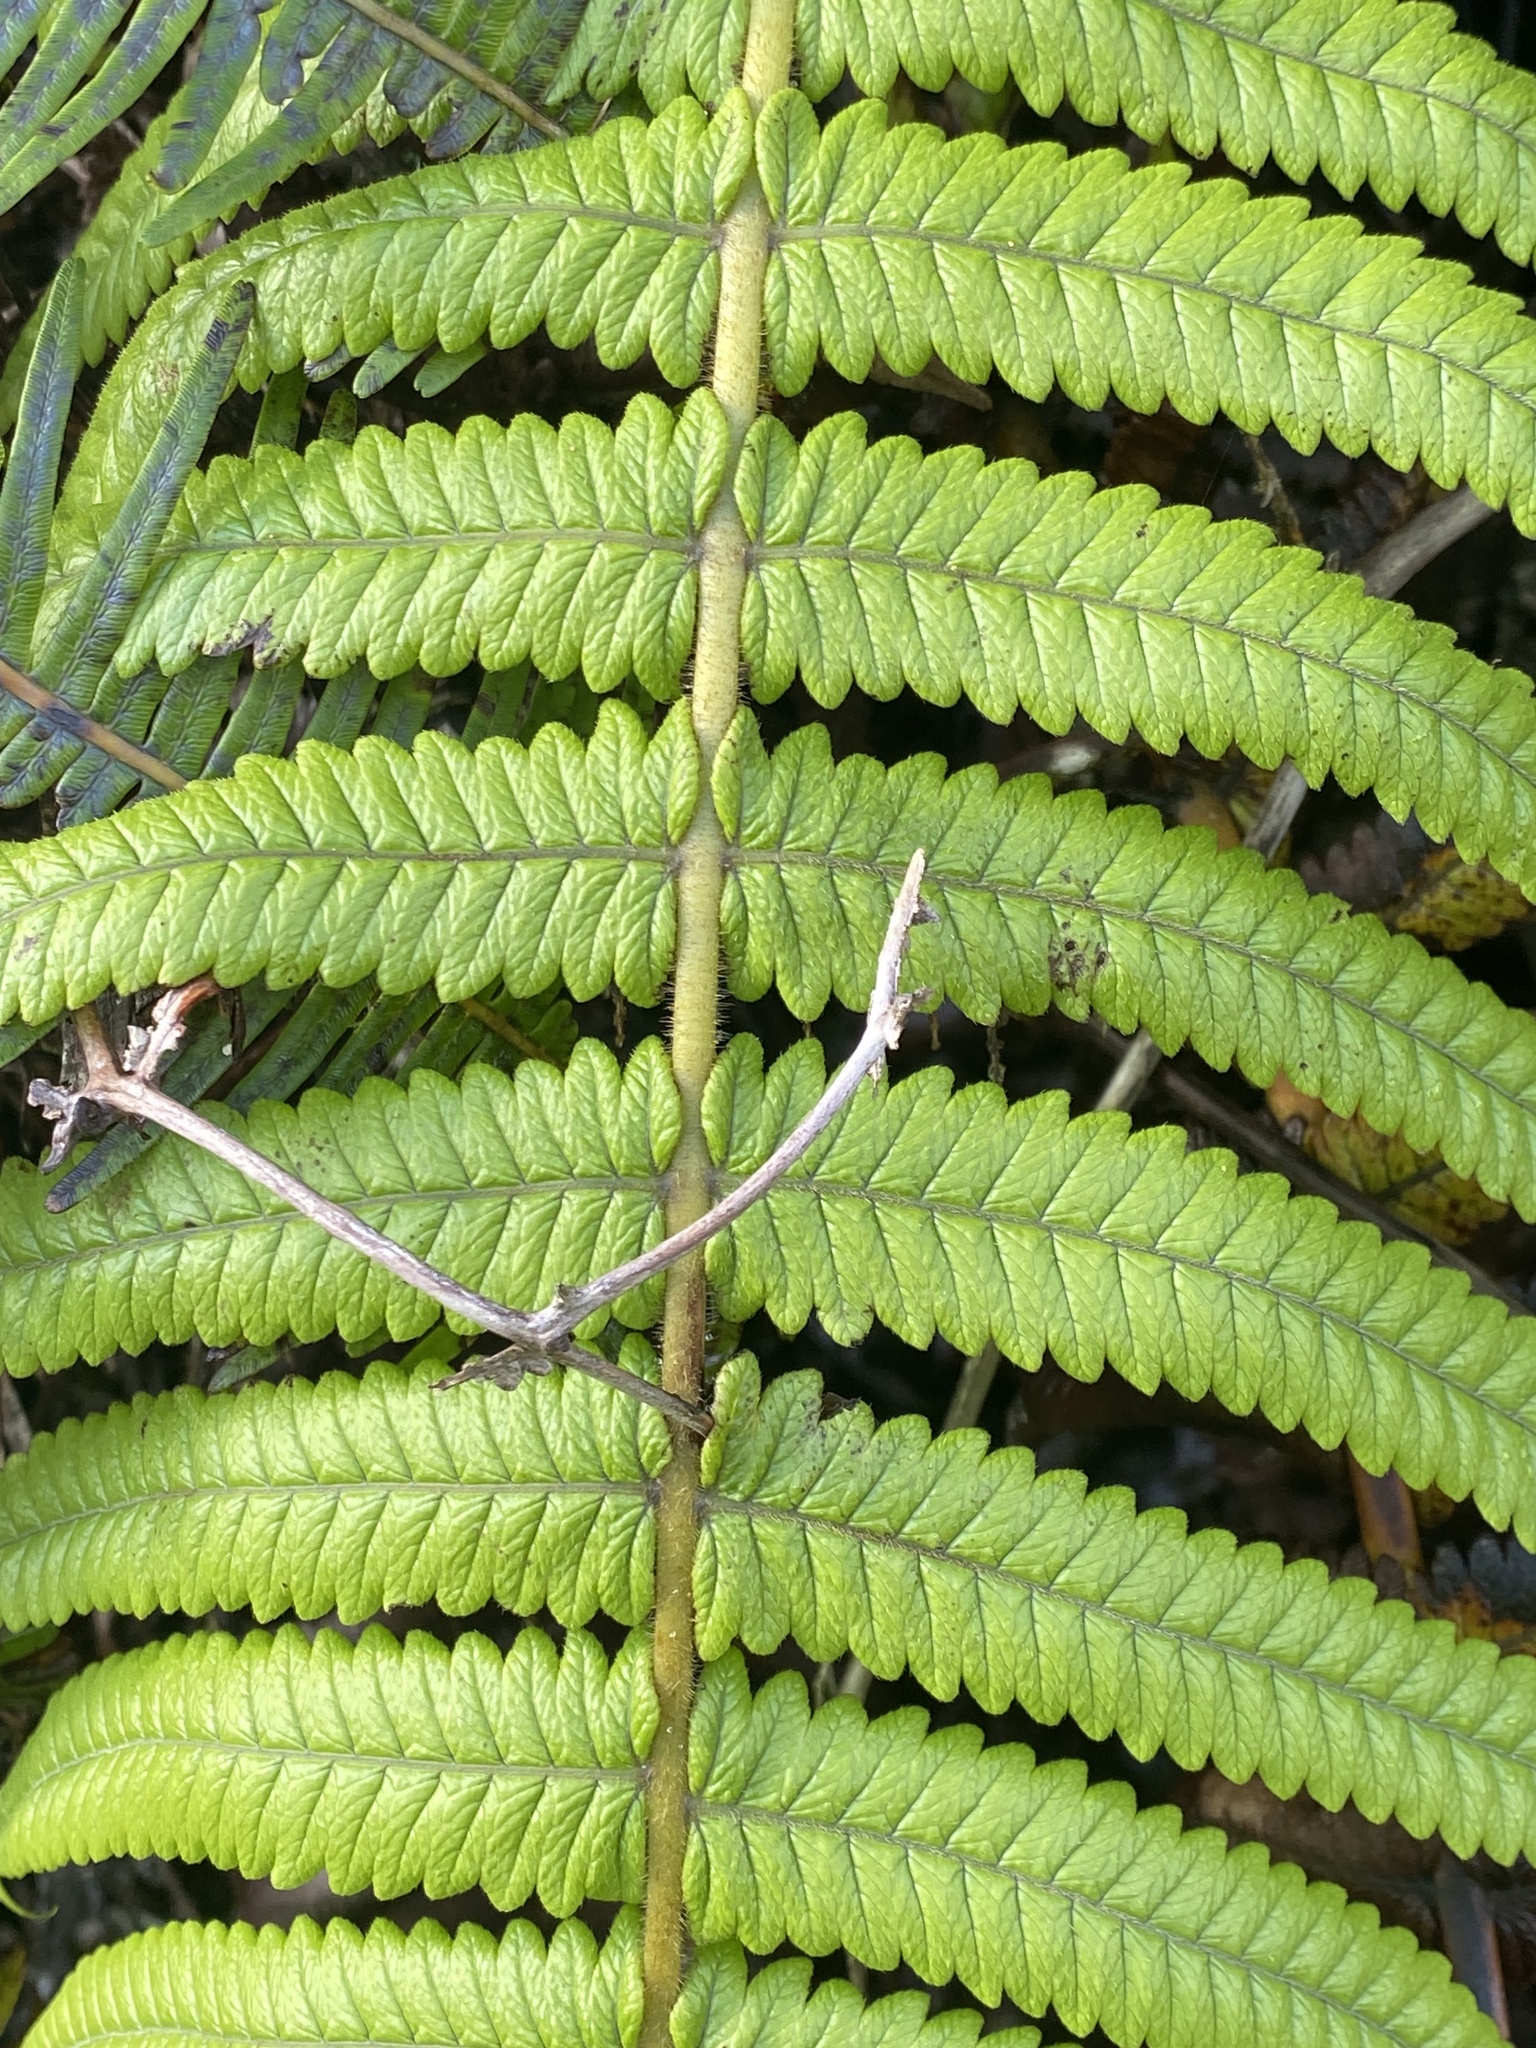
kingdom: Plantae
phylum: Tracheophyta
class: Polypodiopsida
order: Polypodiales
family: Thelypteridaceae
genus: Hoiokula
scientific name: Hoiokula sandwicensis
